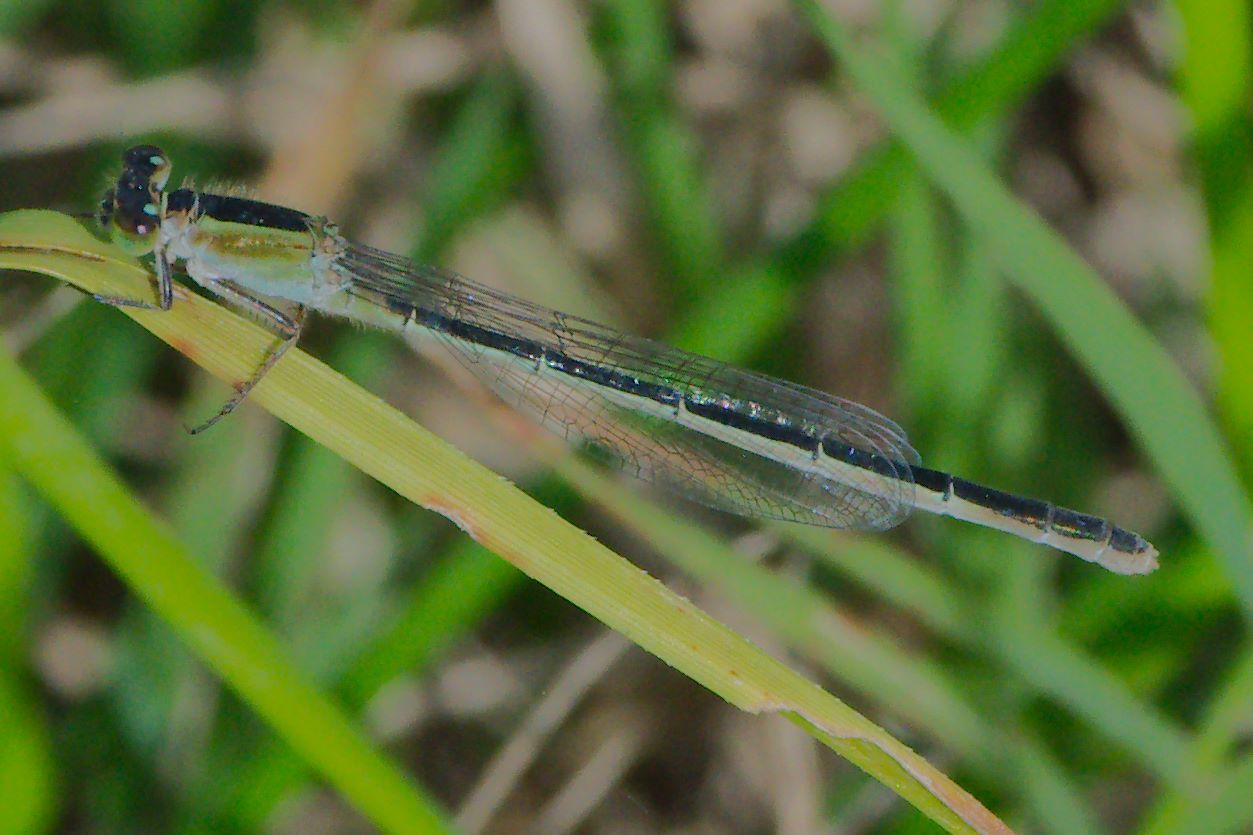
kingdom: Animalia
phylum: Arthropoda
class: Insecta
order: Odonata
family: Coenagrionidae
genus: Ischnura
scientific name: Ischnura ramburii
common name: Rambur's forktail
